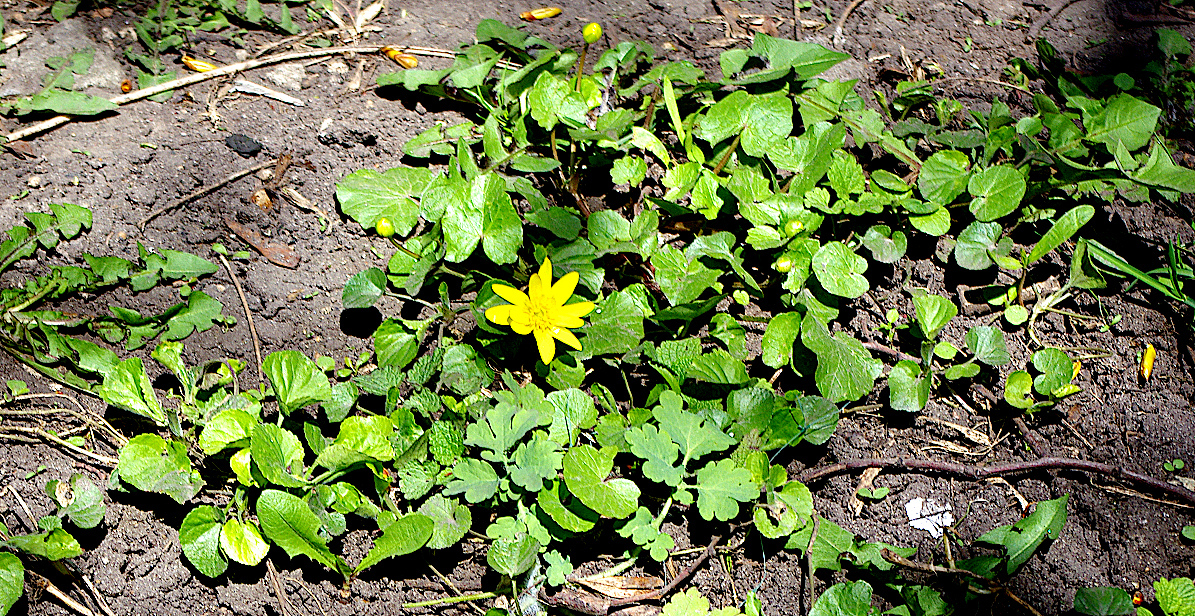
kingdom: Plantae
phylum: Tracheophyta
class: Magnoliopsida
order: Ranunculales
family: Ranunculaceae
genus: Ficaria
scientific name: Ficaria verna
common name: Lesser celandine
